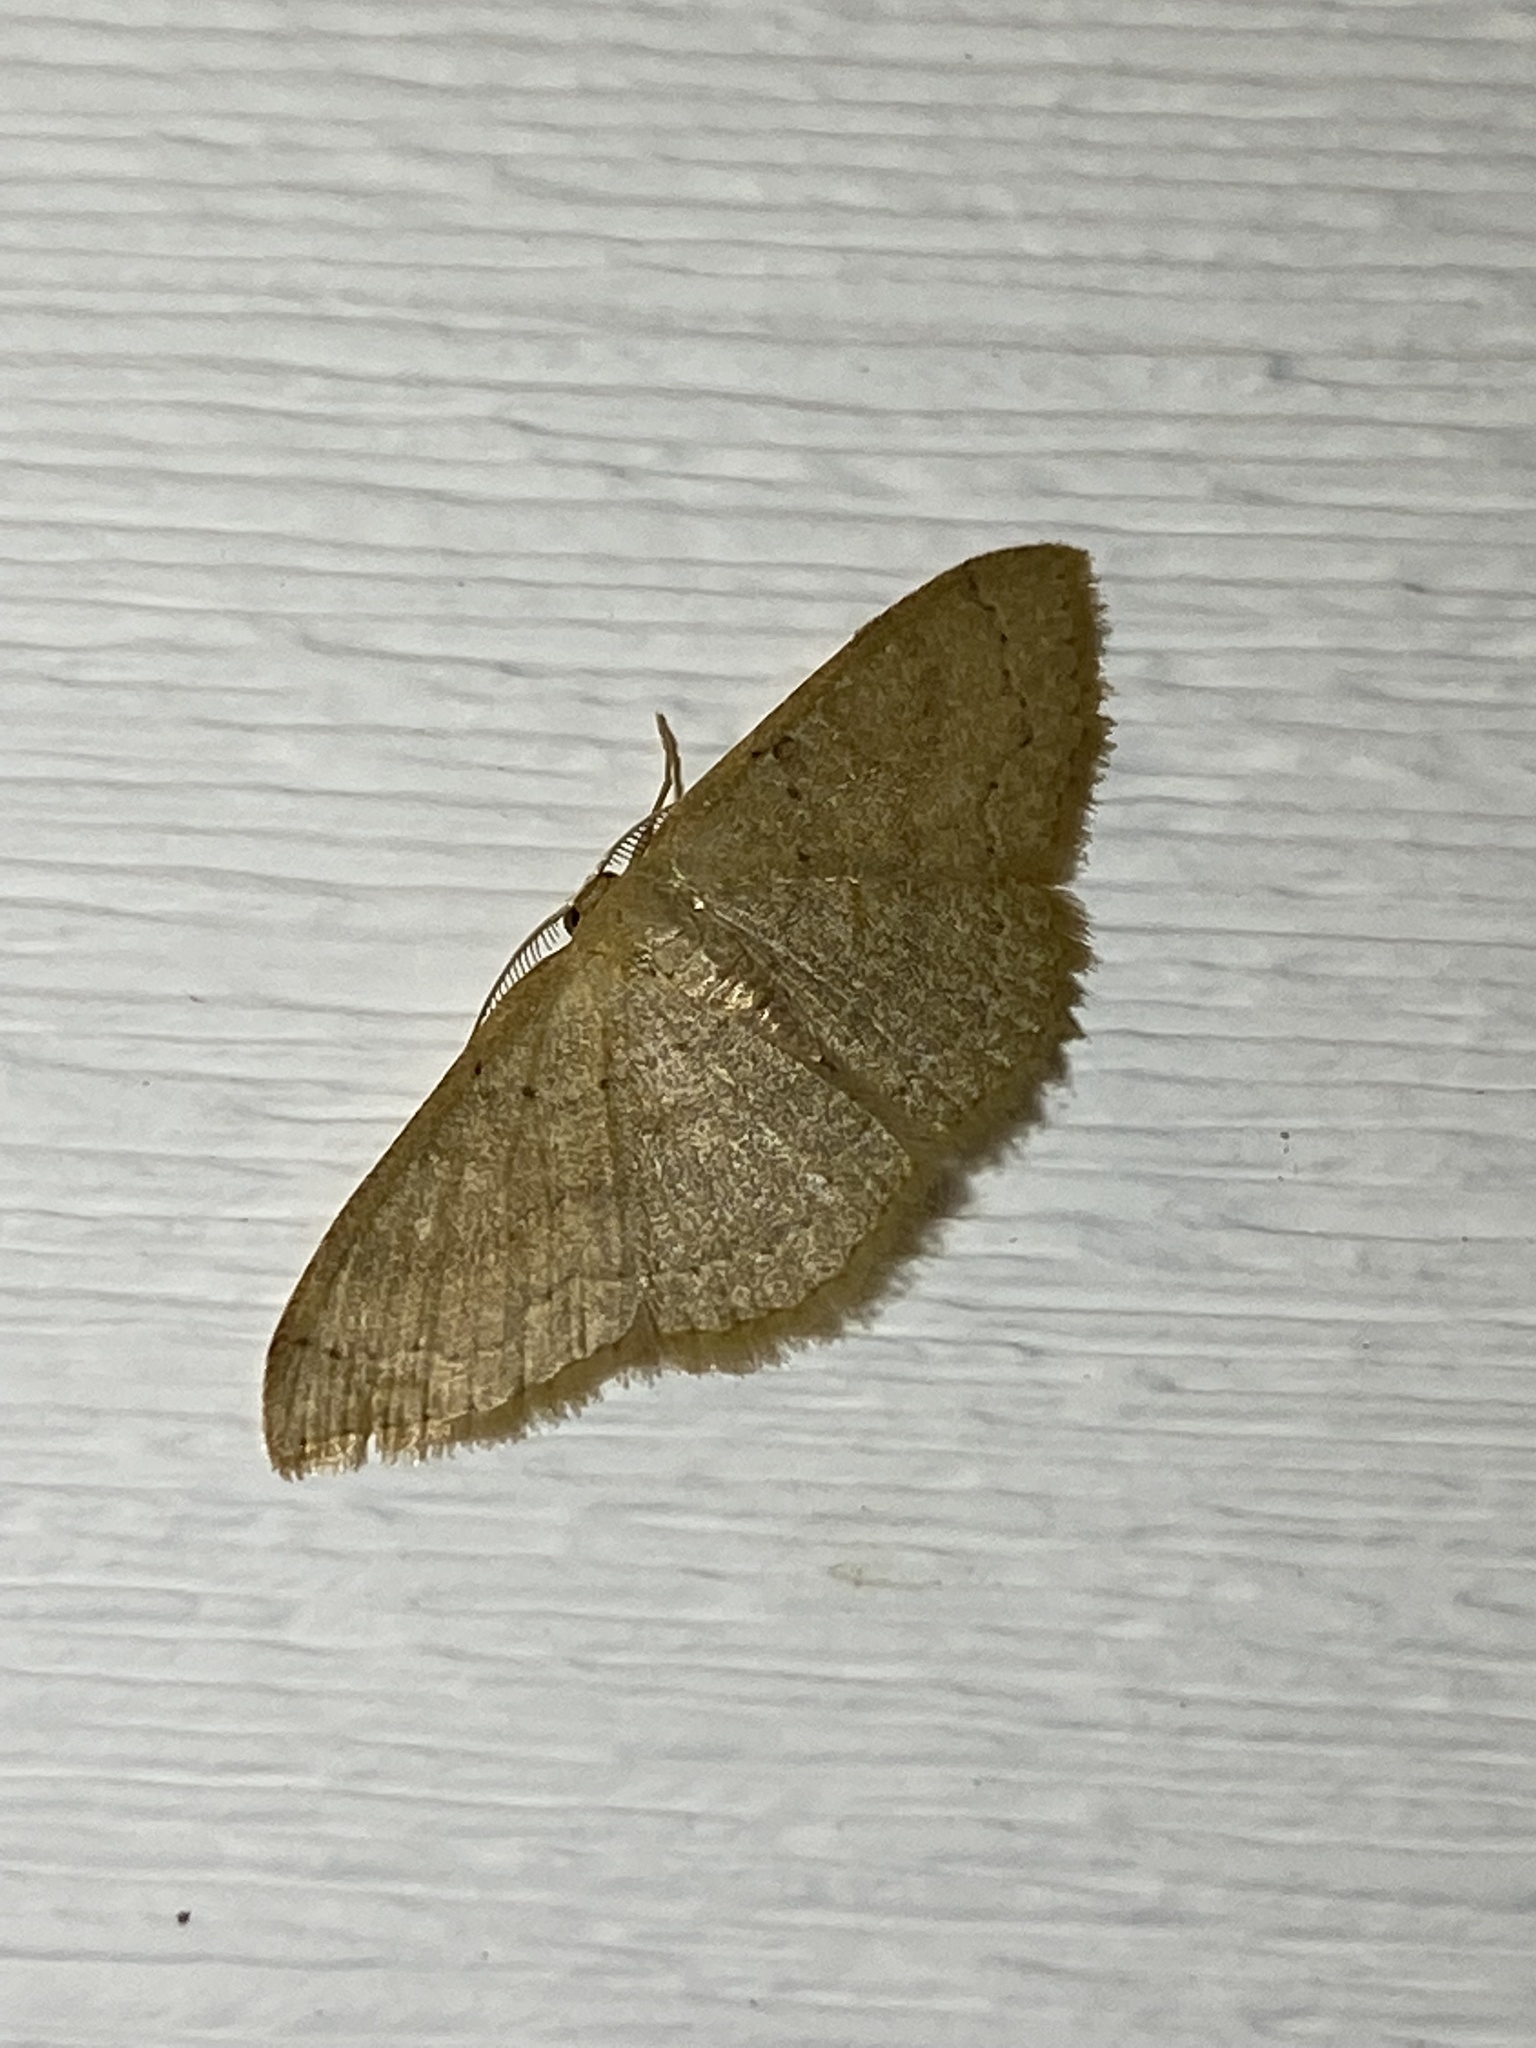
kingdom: Animalia
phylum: Arthropoda
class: Insecta
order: Lepidoptera
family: Geometridae
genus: Pleuroprucha
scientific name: Pleuroprucha insulsaria
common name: Common tan wave
